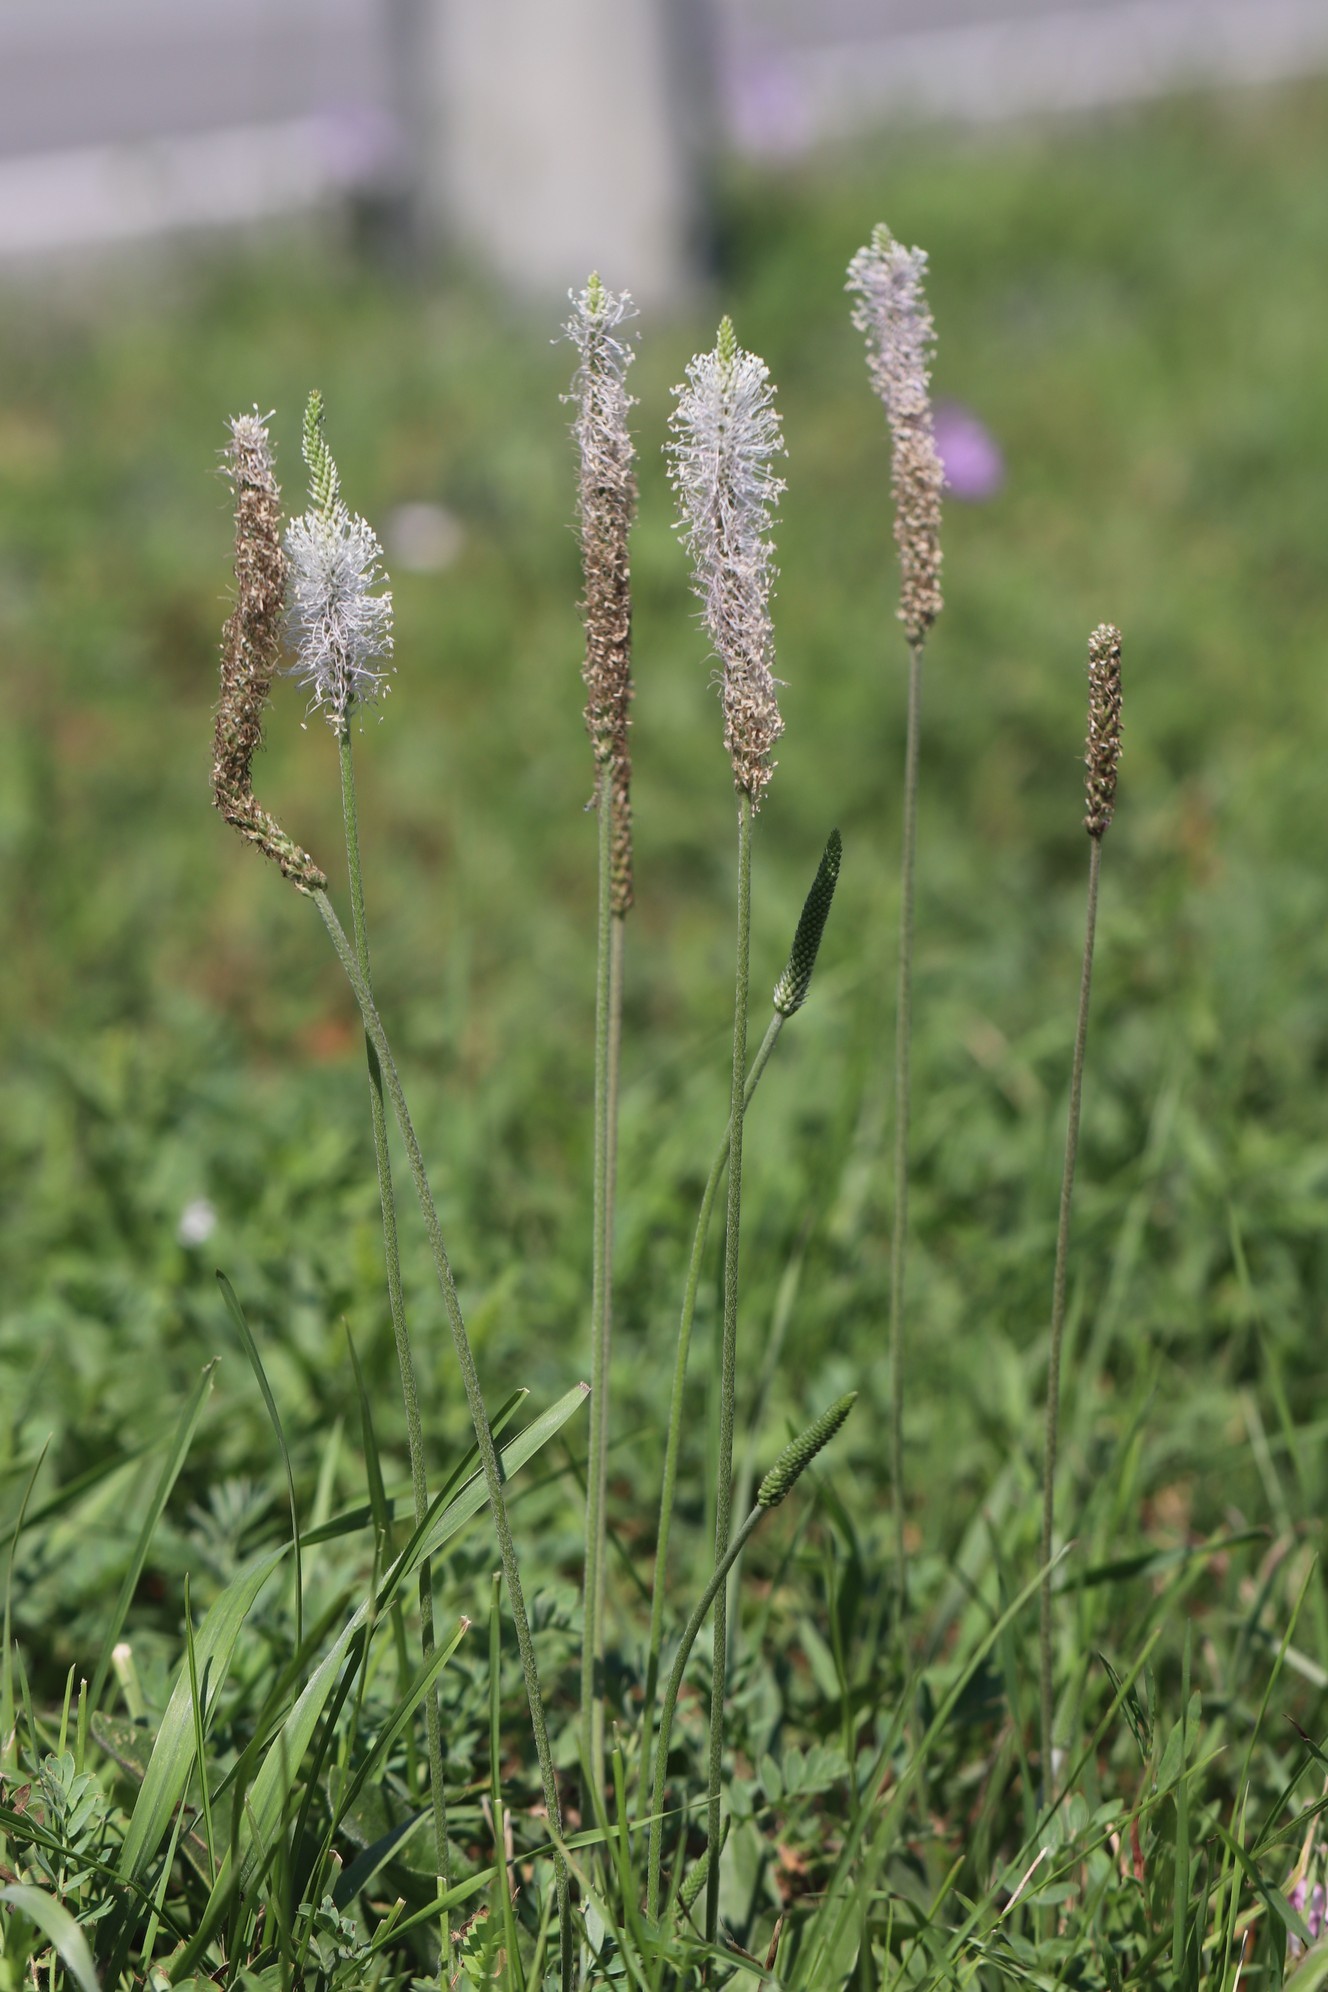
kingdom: Plantae
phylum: Tracheophyta
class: Magnoliopsida
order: Lamiales
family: Plantaginaceae
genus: Plantago
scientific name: Plantago media
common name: Hoary plantain
